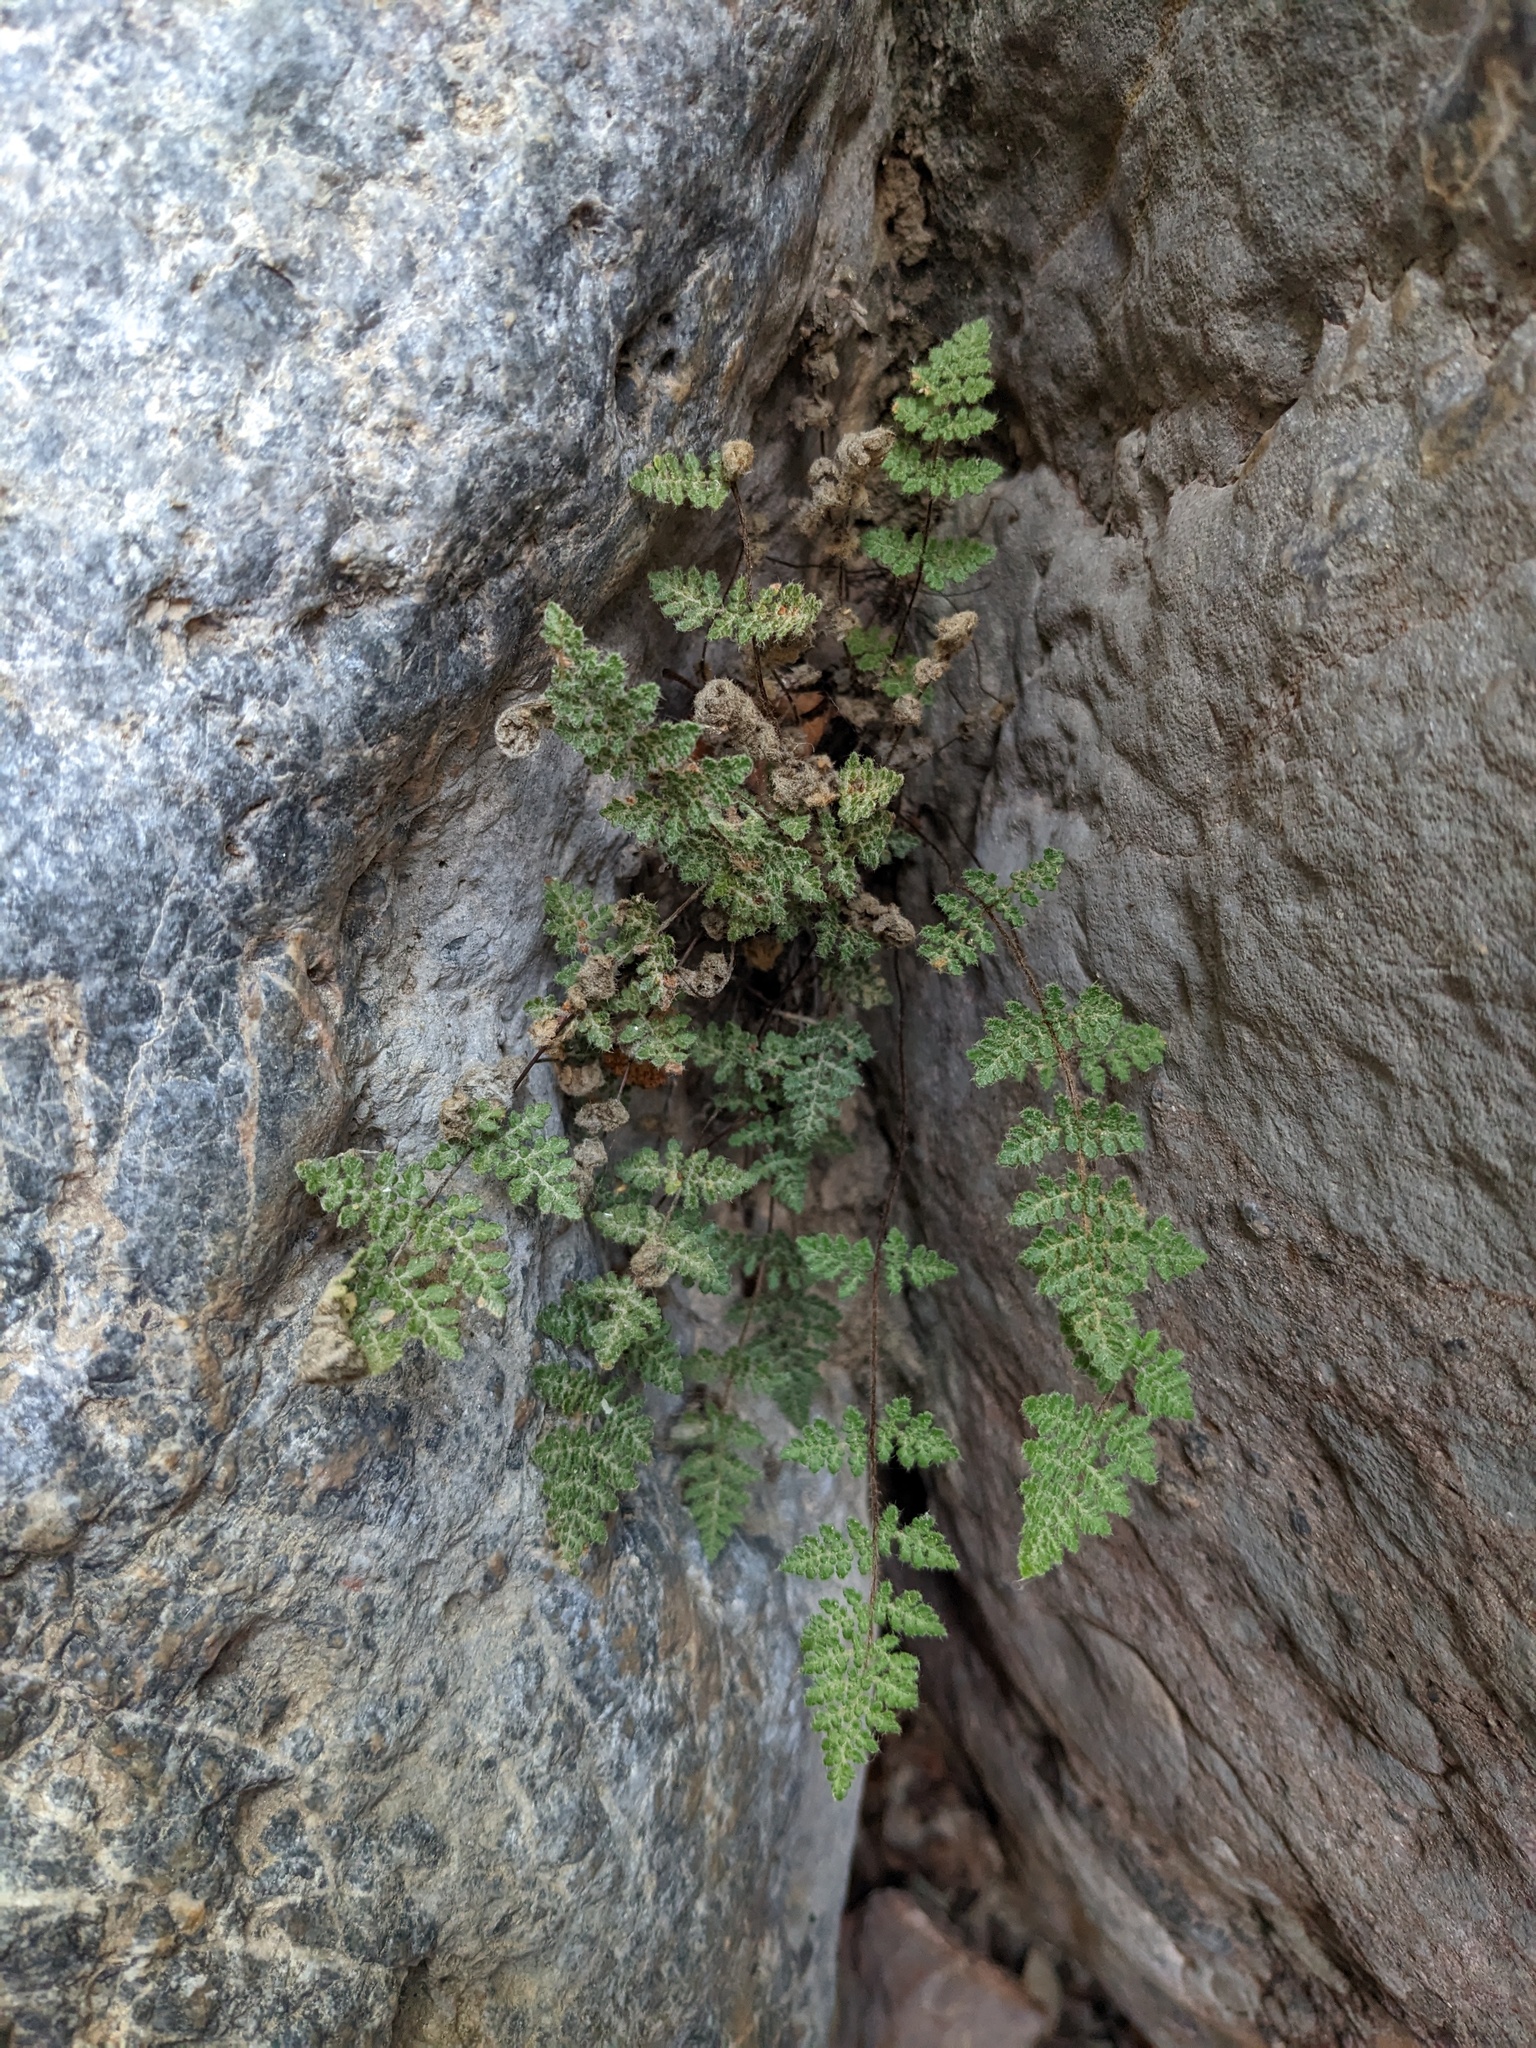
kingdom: Plantae
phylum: Tracheophyta
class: Polypodiopsida
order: Polypodiales
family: Pteridaceae
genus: Myriopteris
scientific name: Myriopteris gracilis
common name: Fee's lip fern
